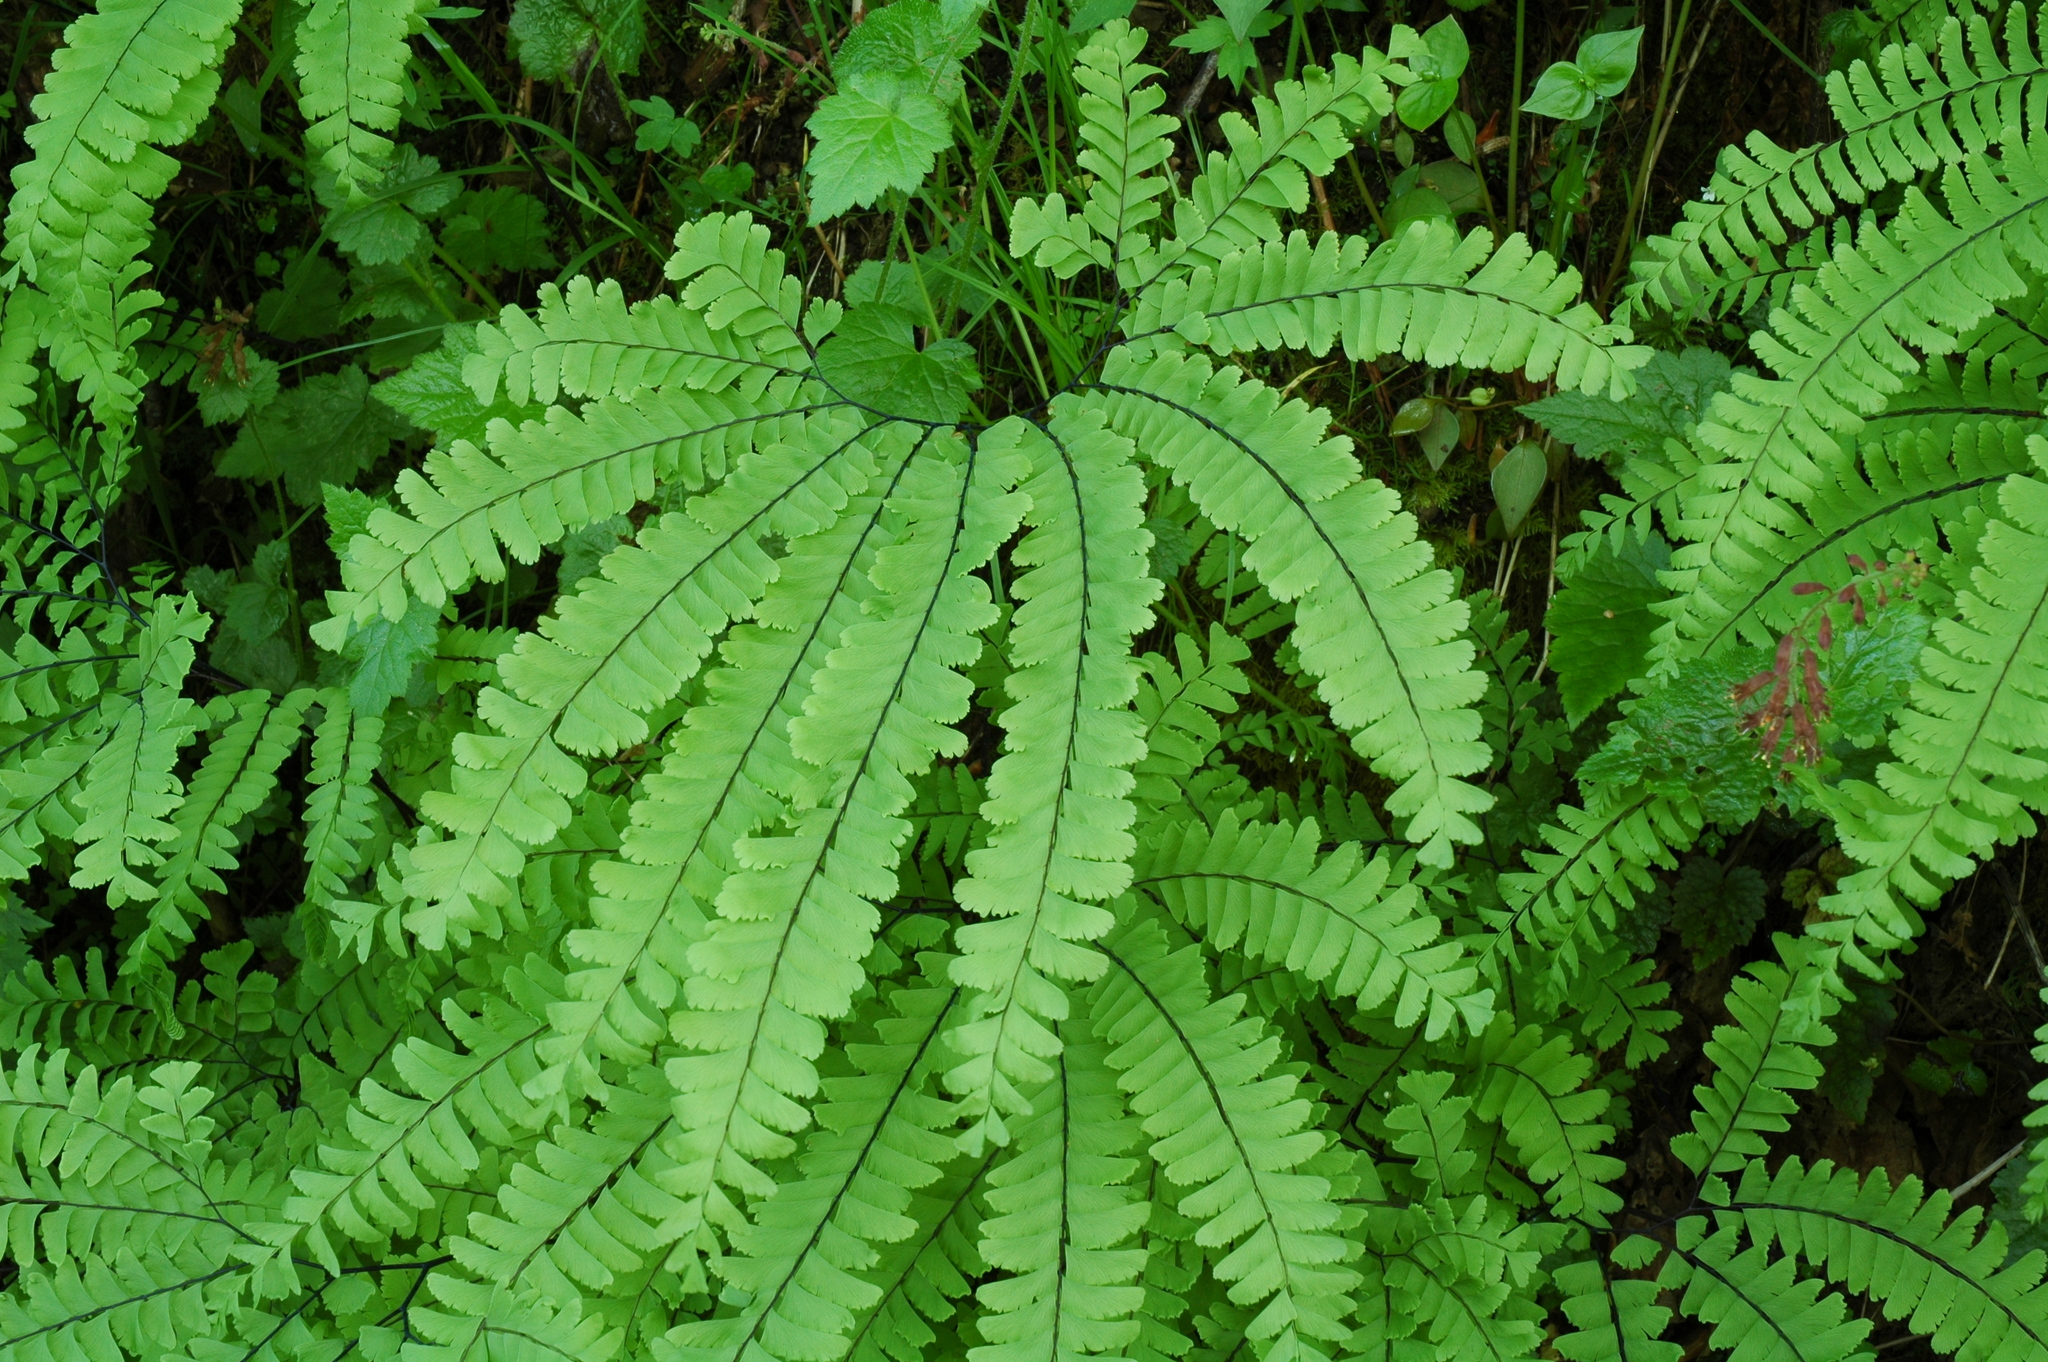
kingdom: Plantae
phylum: Tracheophyta
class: Polypodiopsida
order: Polypodiales
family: Pteridaceae
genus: Adiantum
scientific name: Adiantum aleuticum
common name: Aleutian maidenhair fern
